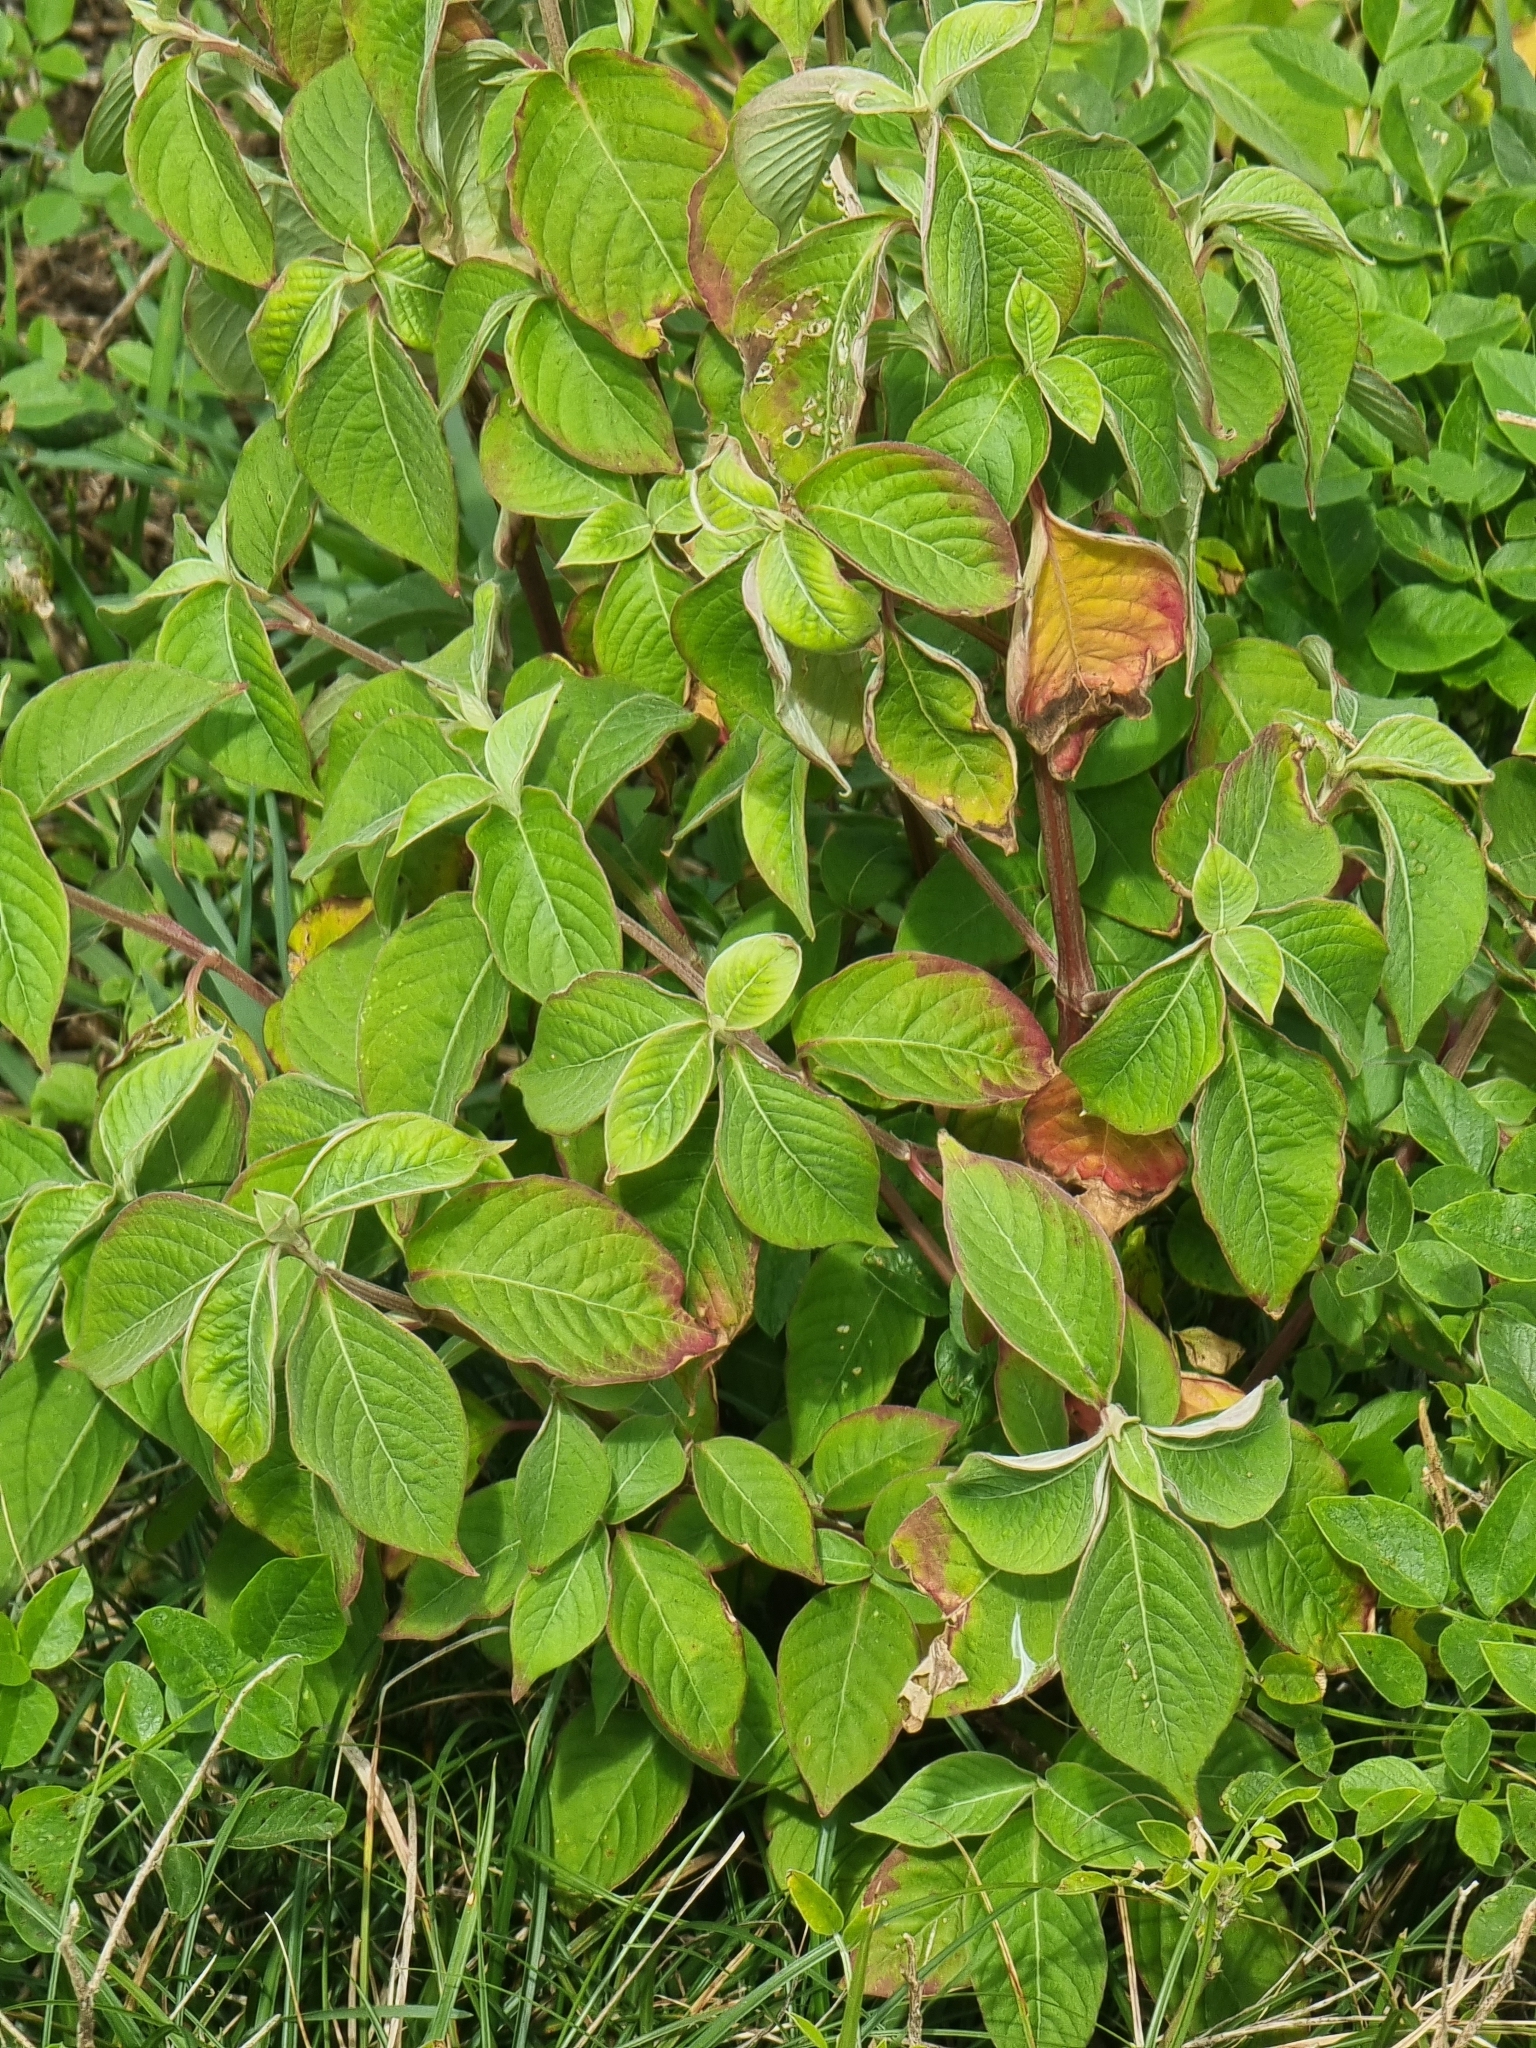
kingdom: Plantae
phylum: Tracheophyta
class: Magnoliopsida
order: Caryophyllales
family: Amaranthaceae
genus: Achyranthes
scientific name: Achyranthes aspera
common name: Devil's horsewhip
